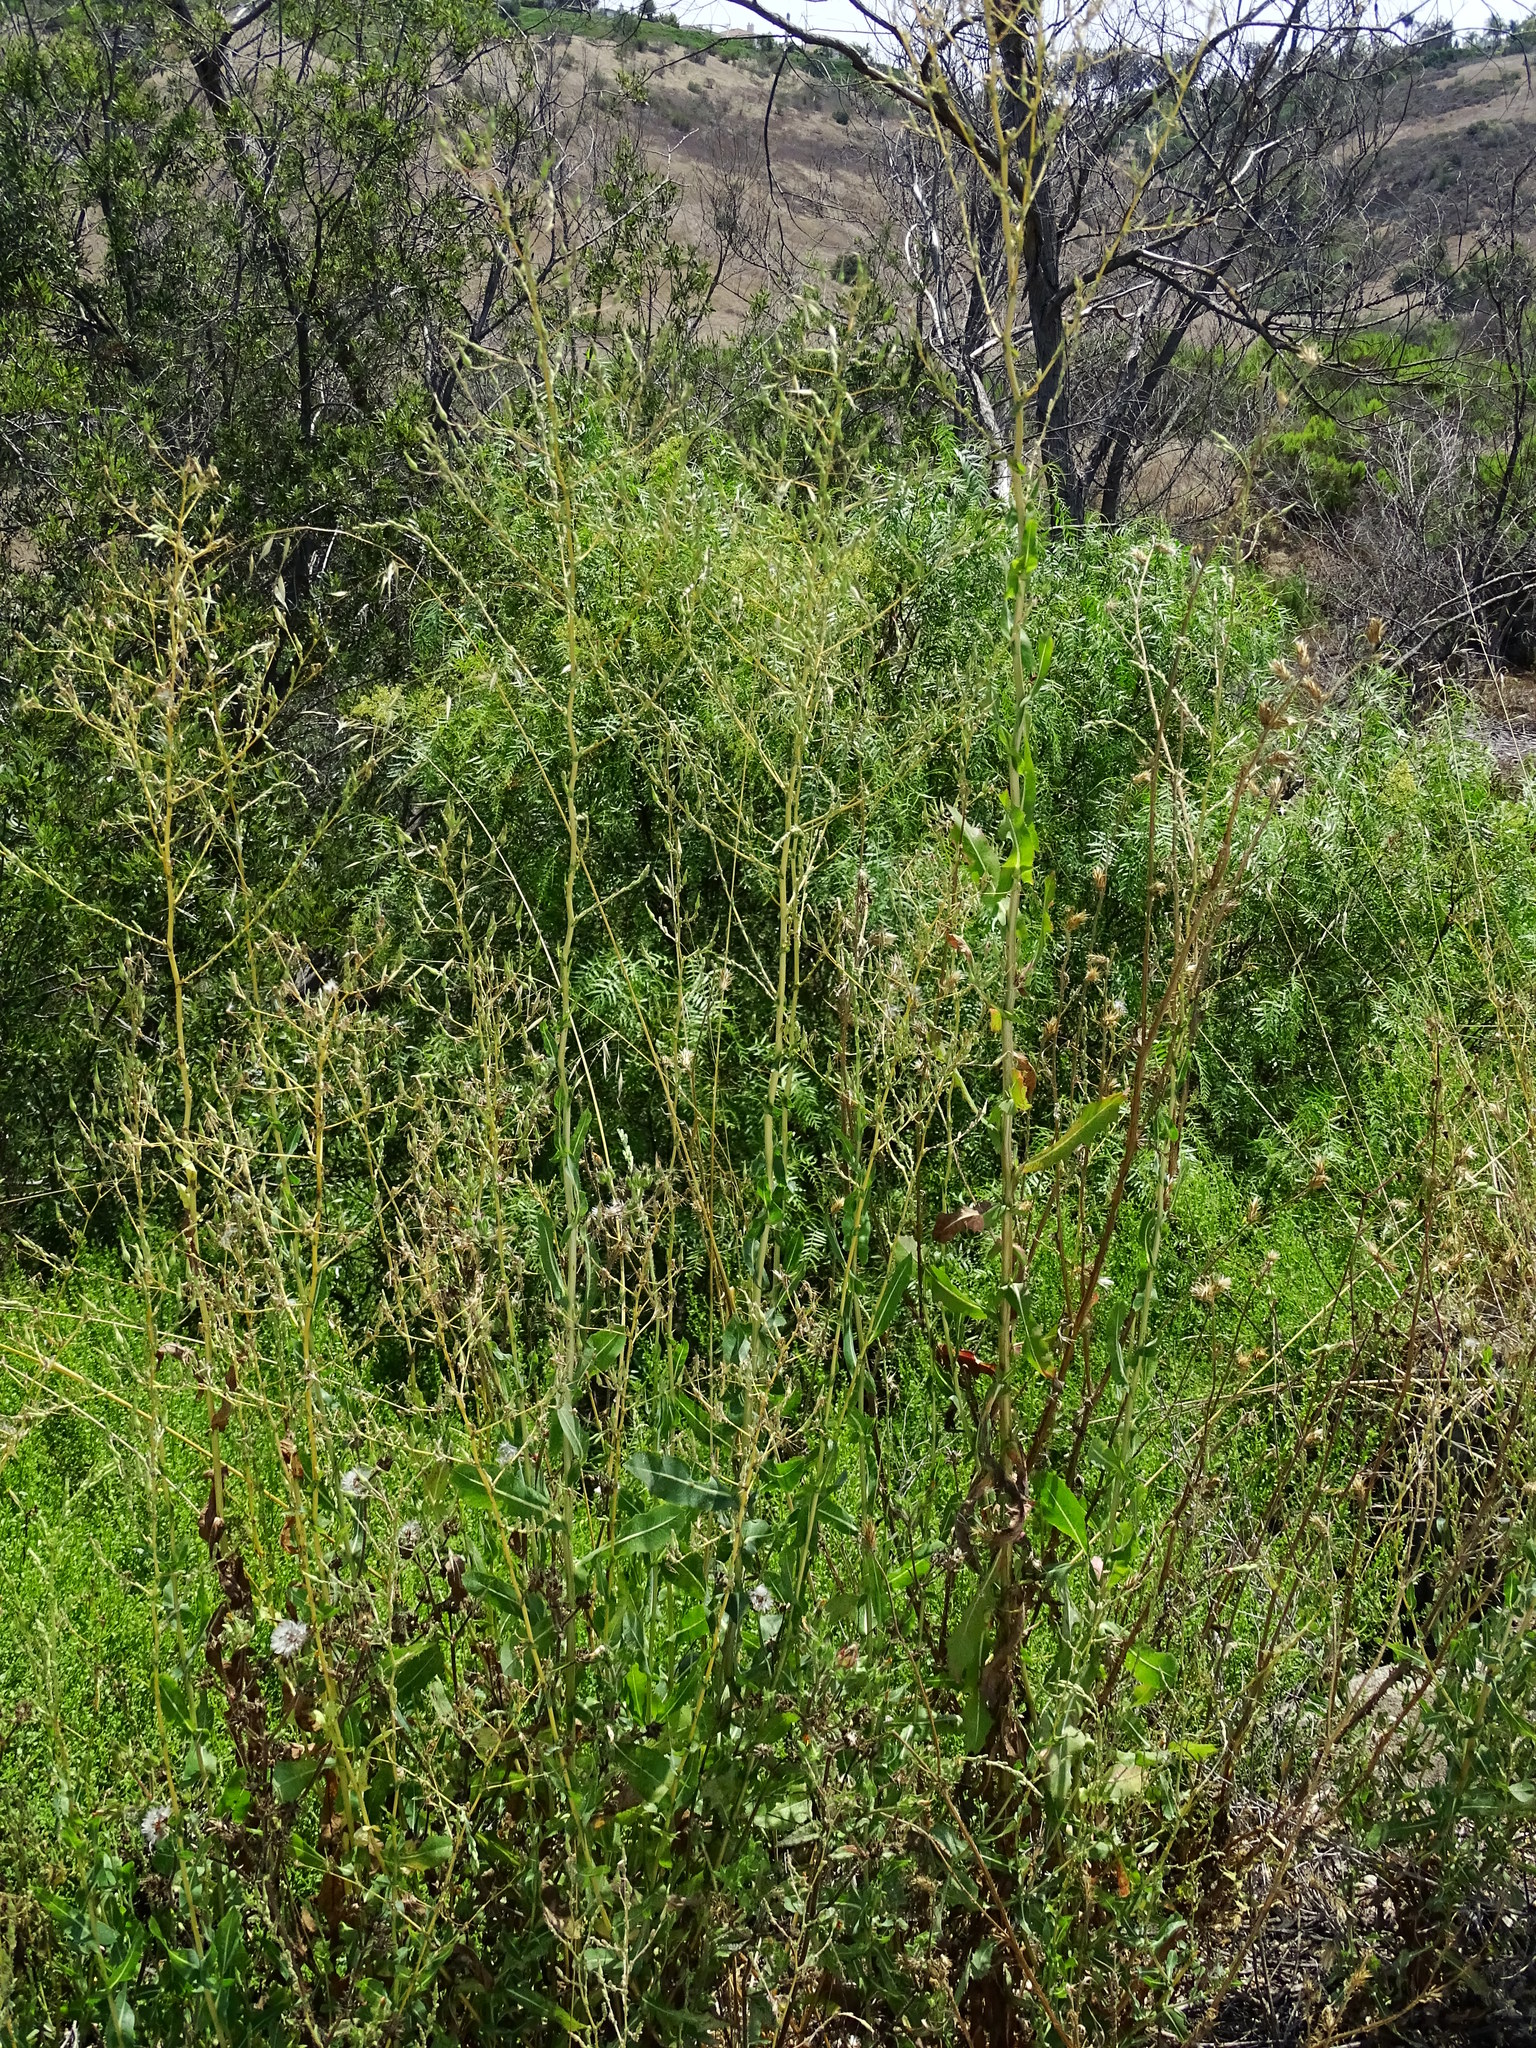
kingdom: Plantae
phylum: Tracheophyta
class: Magnoliopsida
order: Asterales
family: Asteraceae
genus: Lactuca
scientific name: Lactuca serriola
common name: Prickly lettuce
